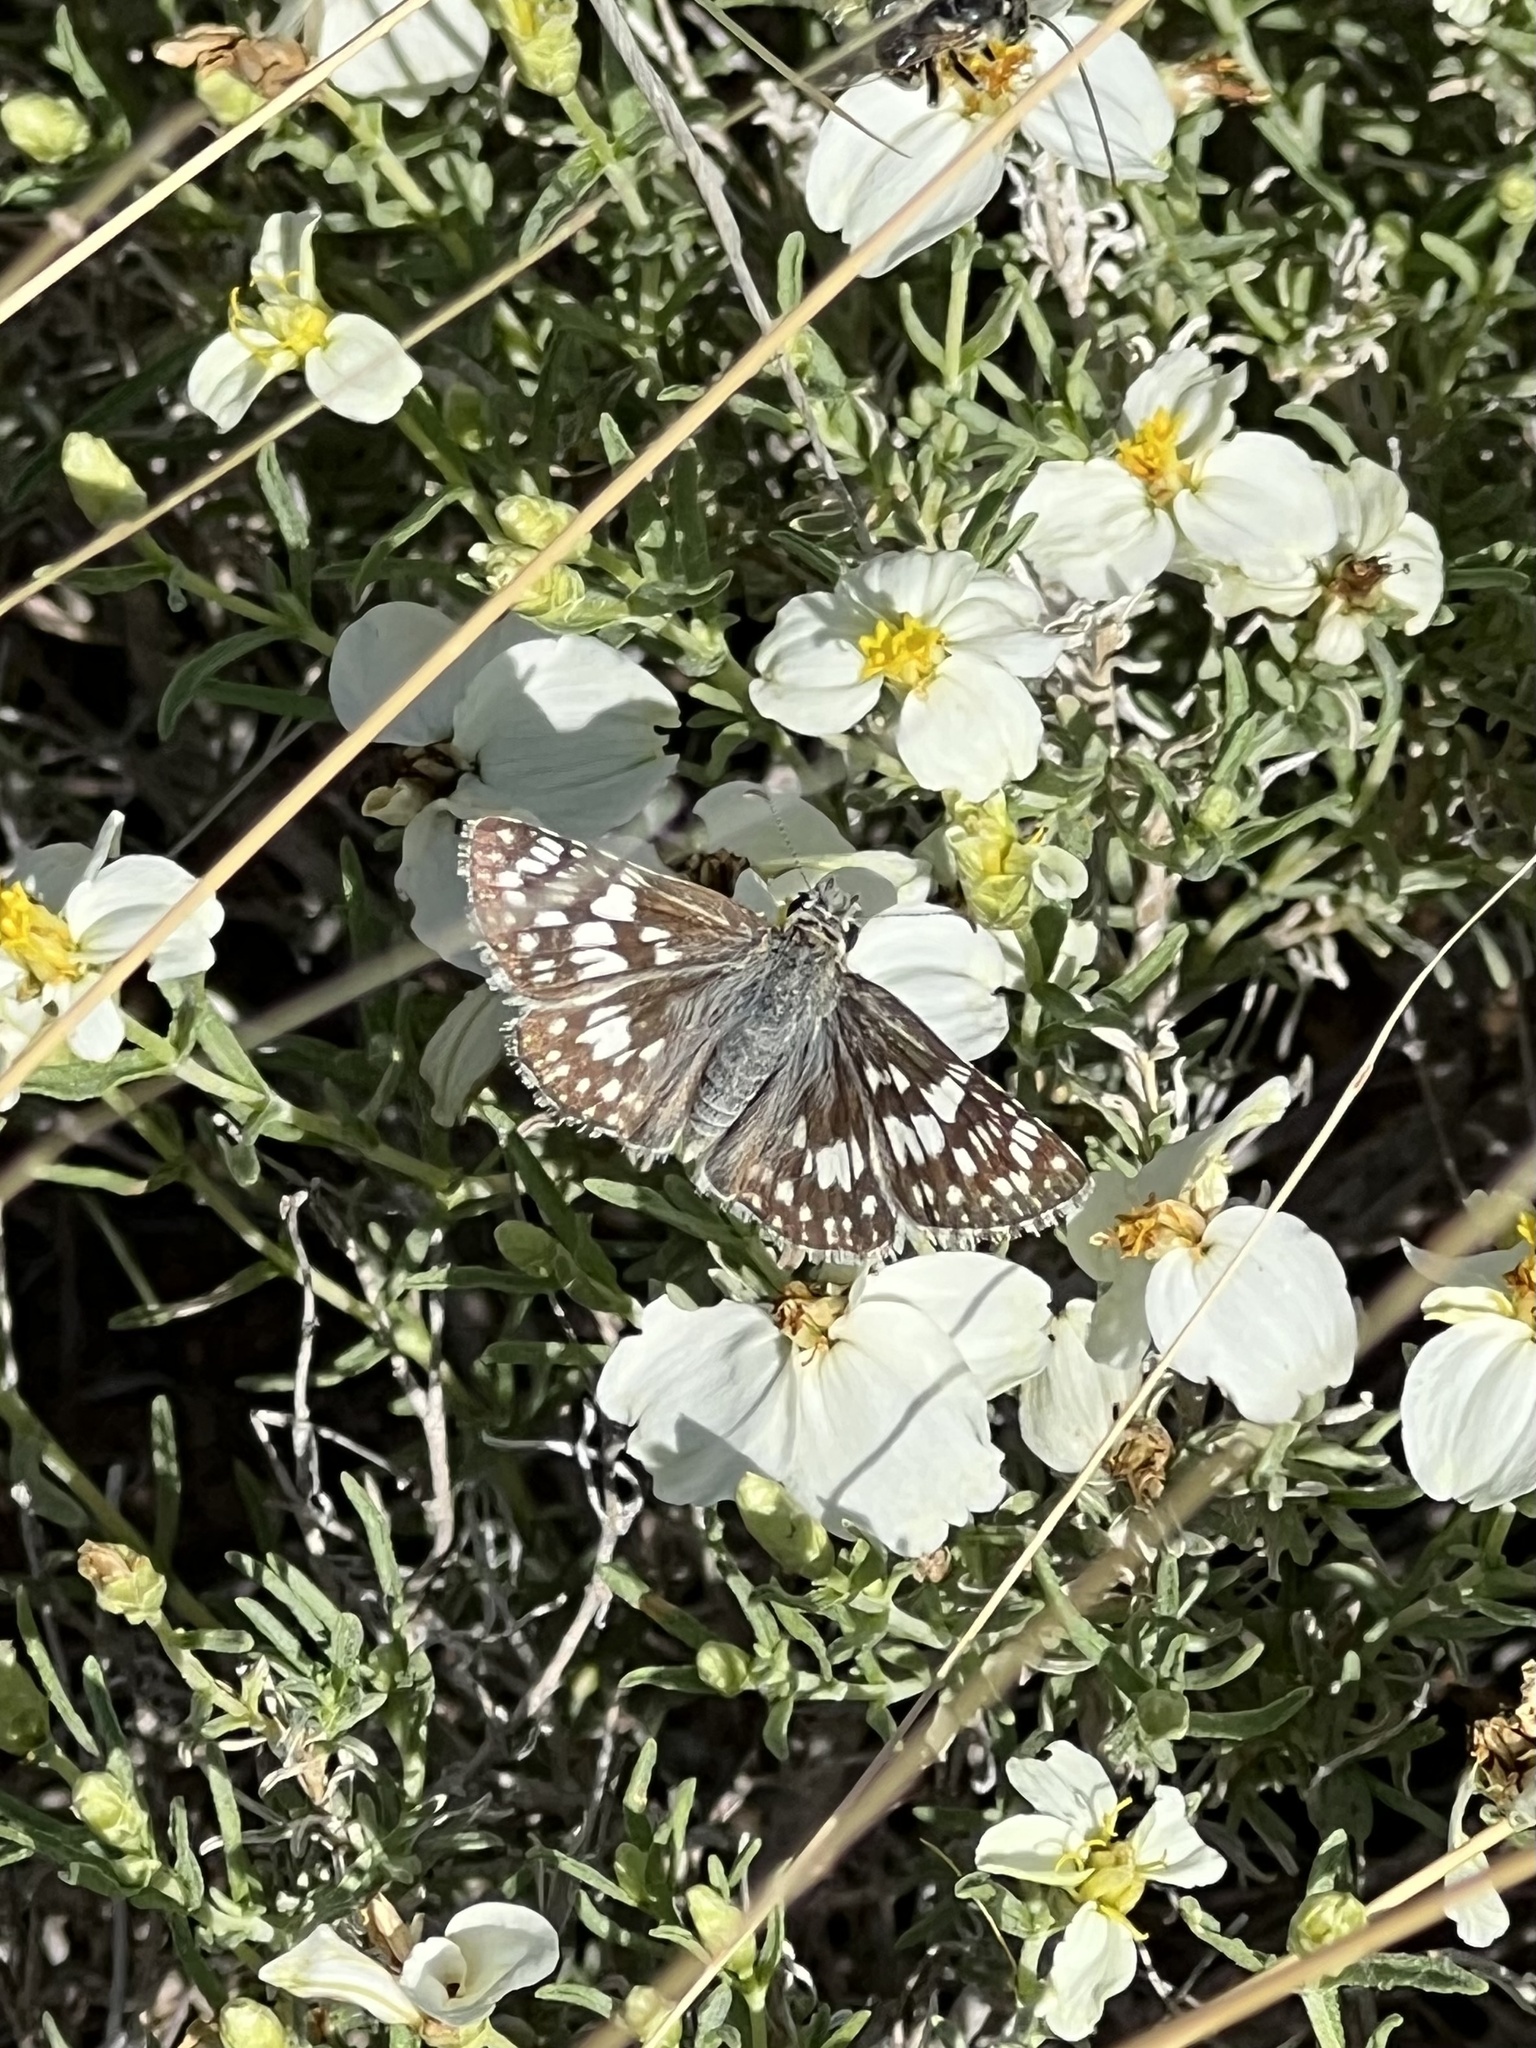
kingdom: Animalia
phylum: Arthropoda
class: Insecta
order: Lepidoptera
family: Hesperiidae
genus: Burnsius
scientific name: Burnsius albezens
